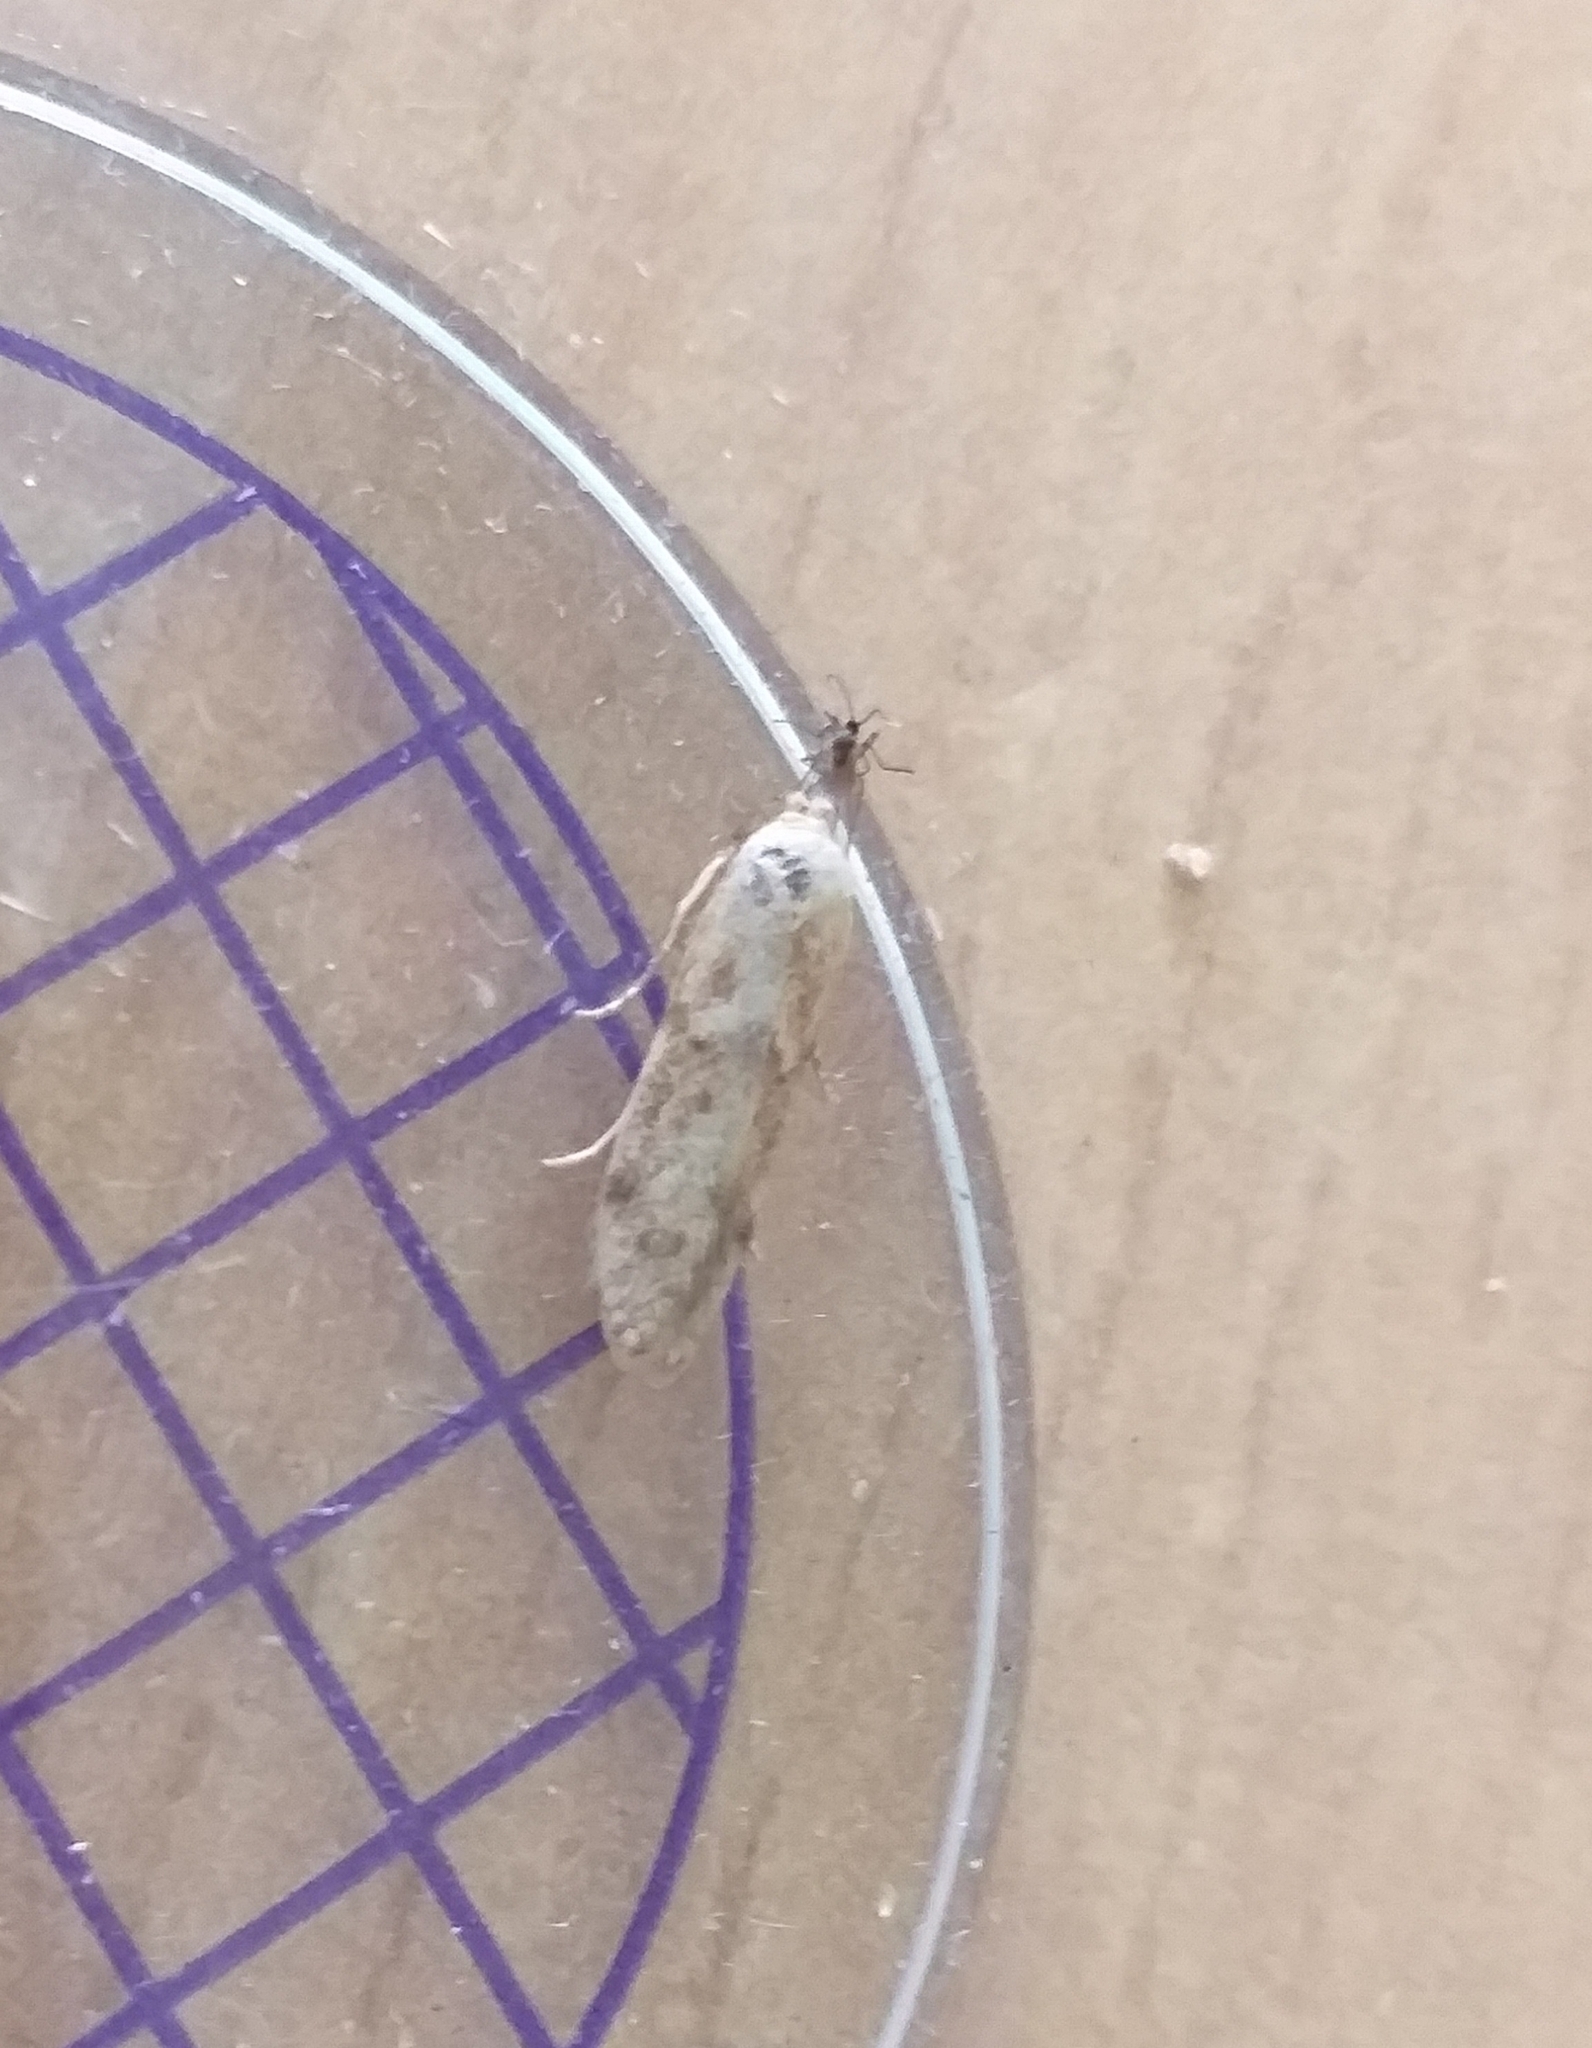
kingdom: Animalia
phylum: Arthropoda
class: Insecta
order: Lepidoptera
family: Blastobasidae
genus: Blastobasis
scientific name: Blastobasis lacticolella
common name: London dowd
